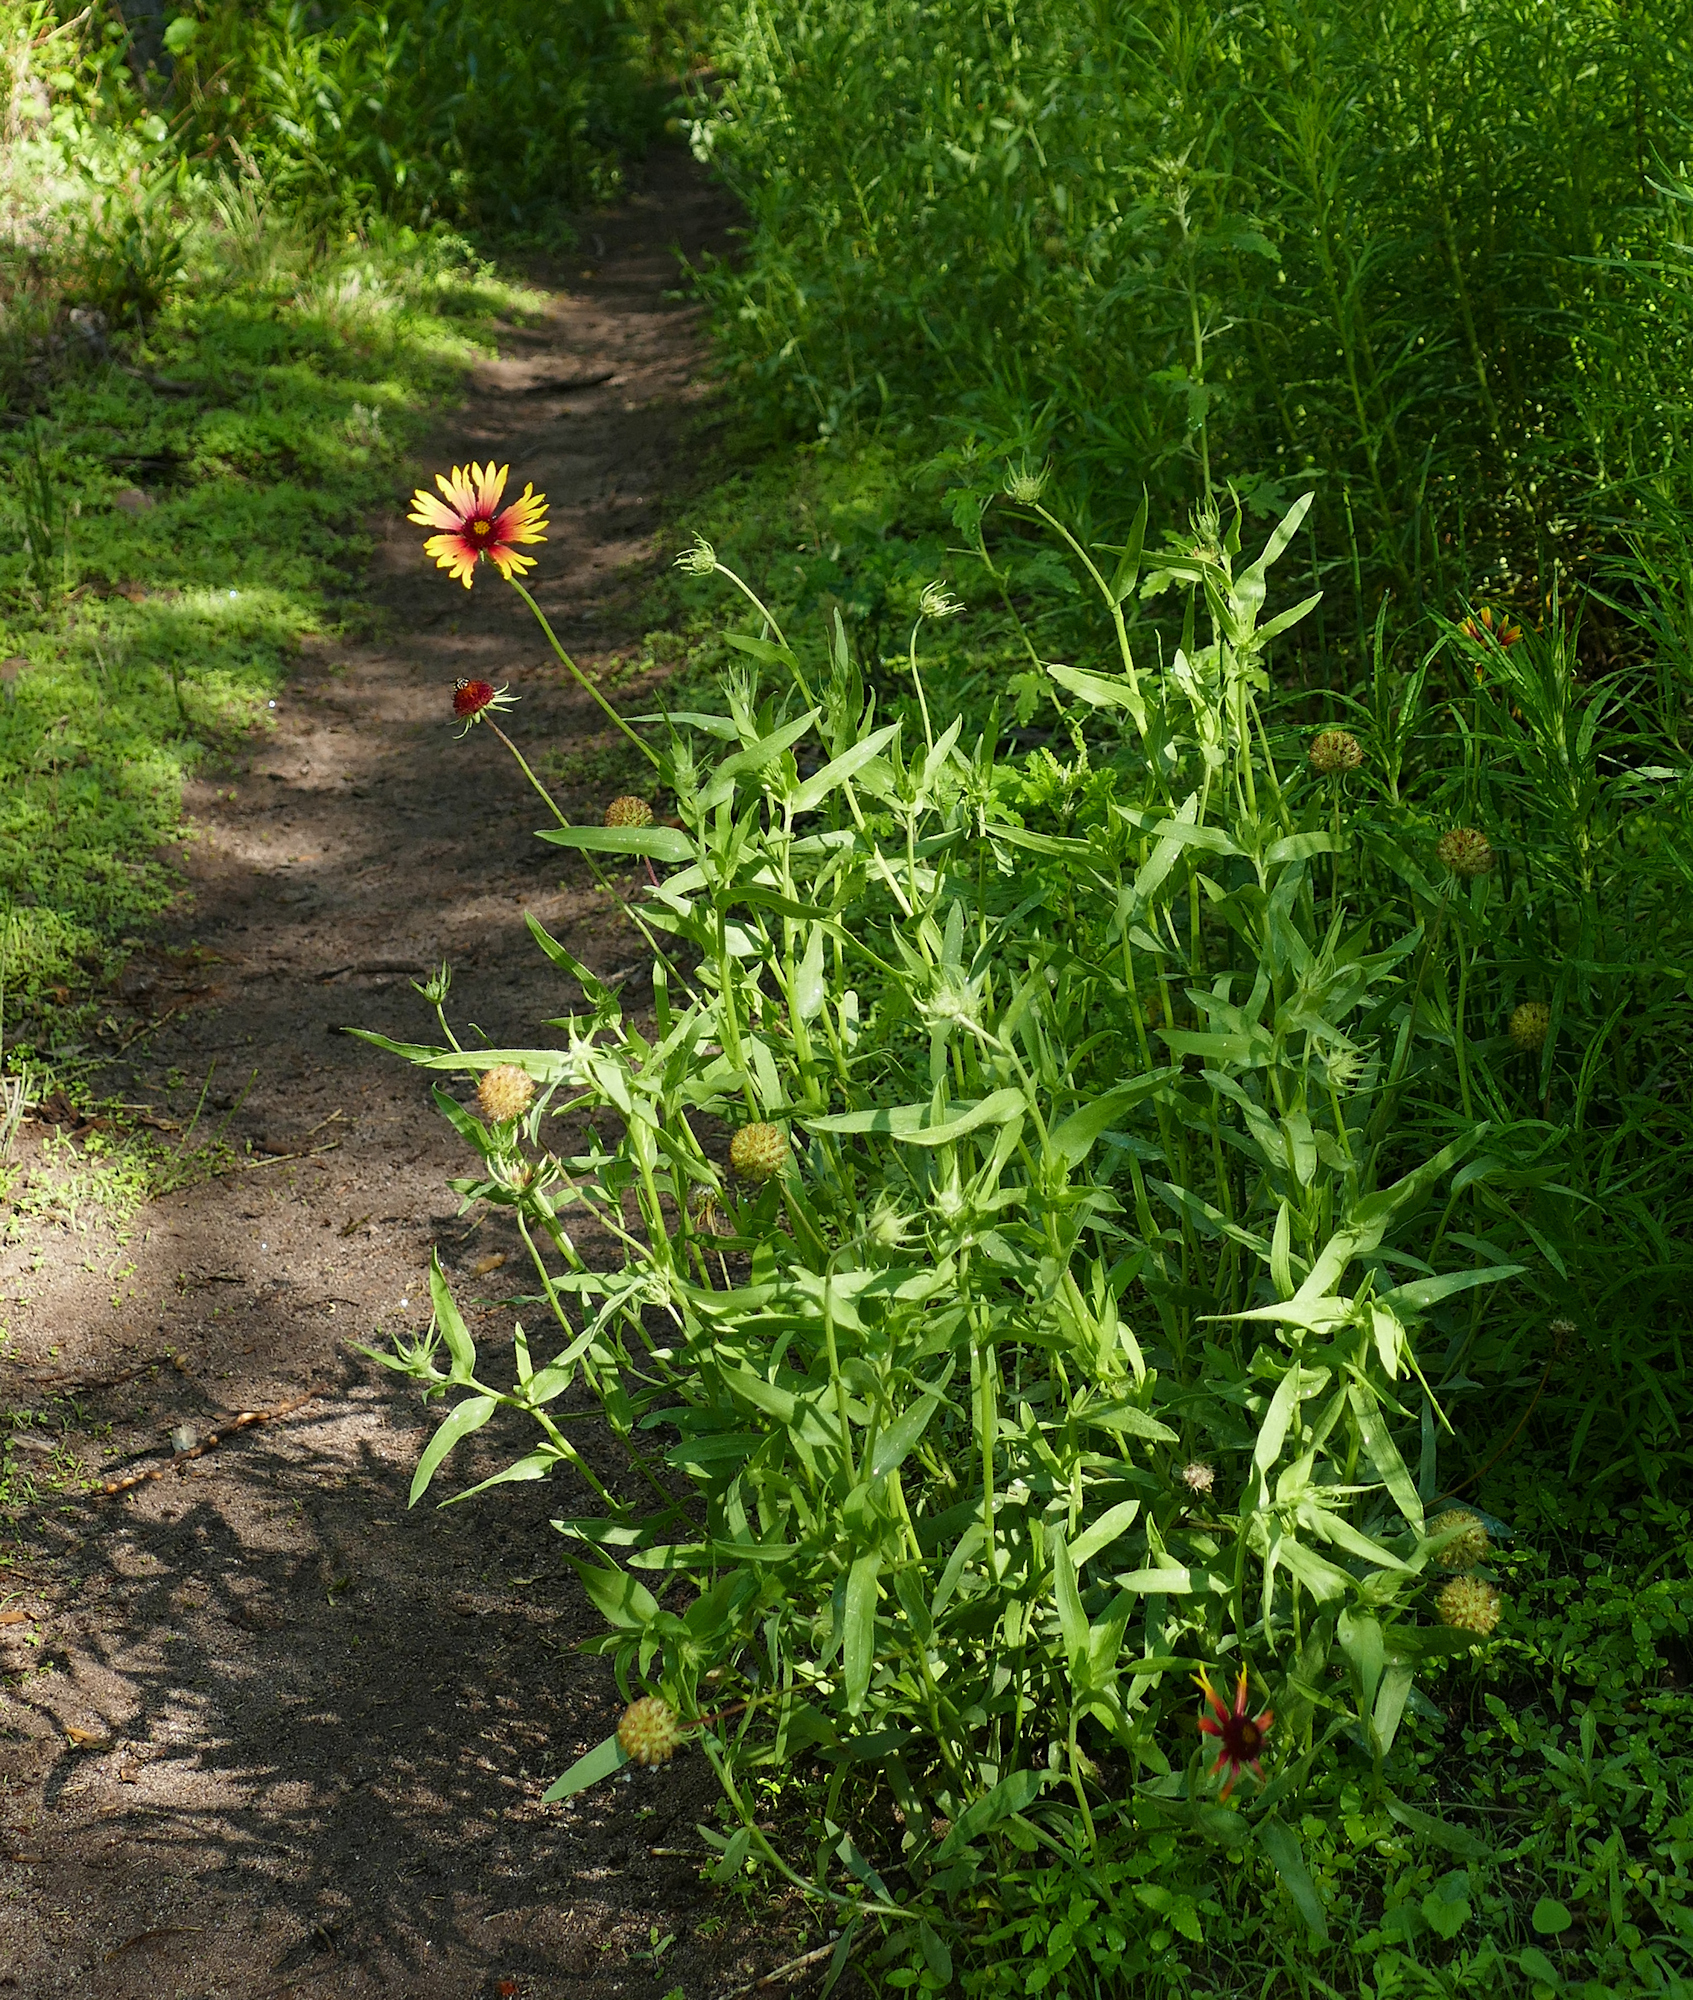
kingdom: Plantae
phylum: Tracheophyta
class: Magnoliopsida
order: Asterales
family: Asteraceae
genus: Gaillardia
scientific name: Gaillardia pulchella
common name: Firewheel
